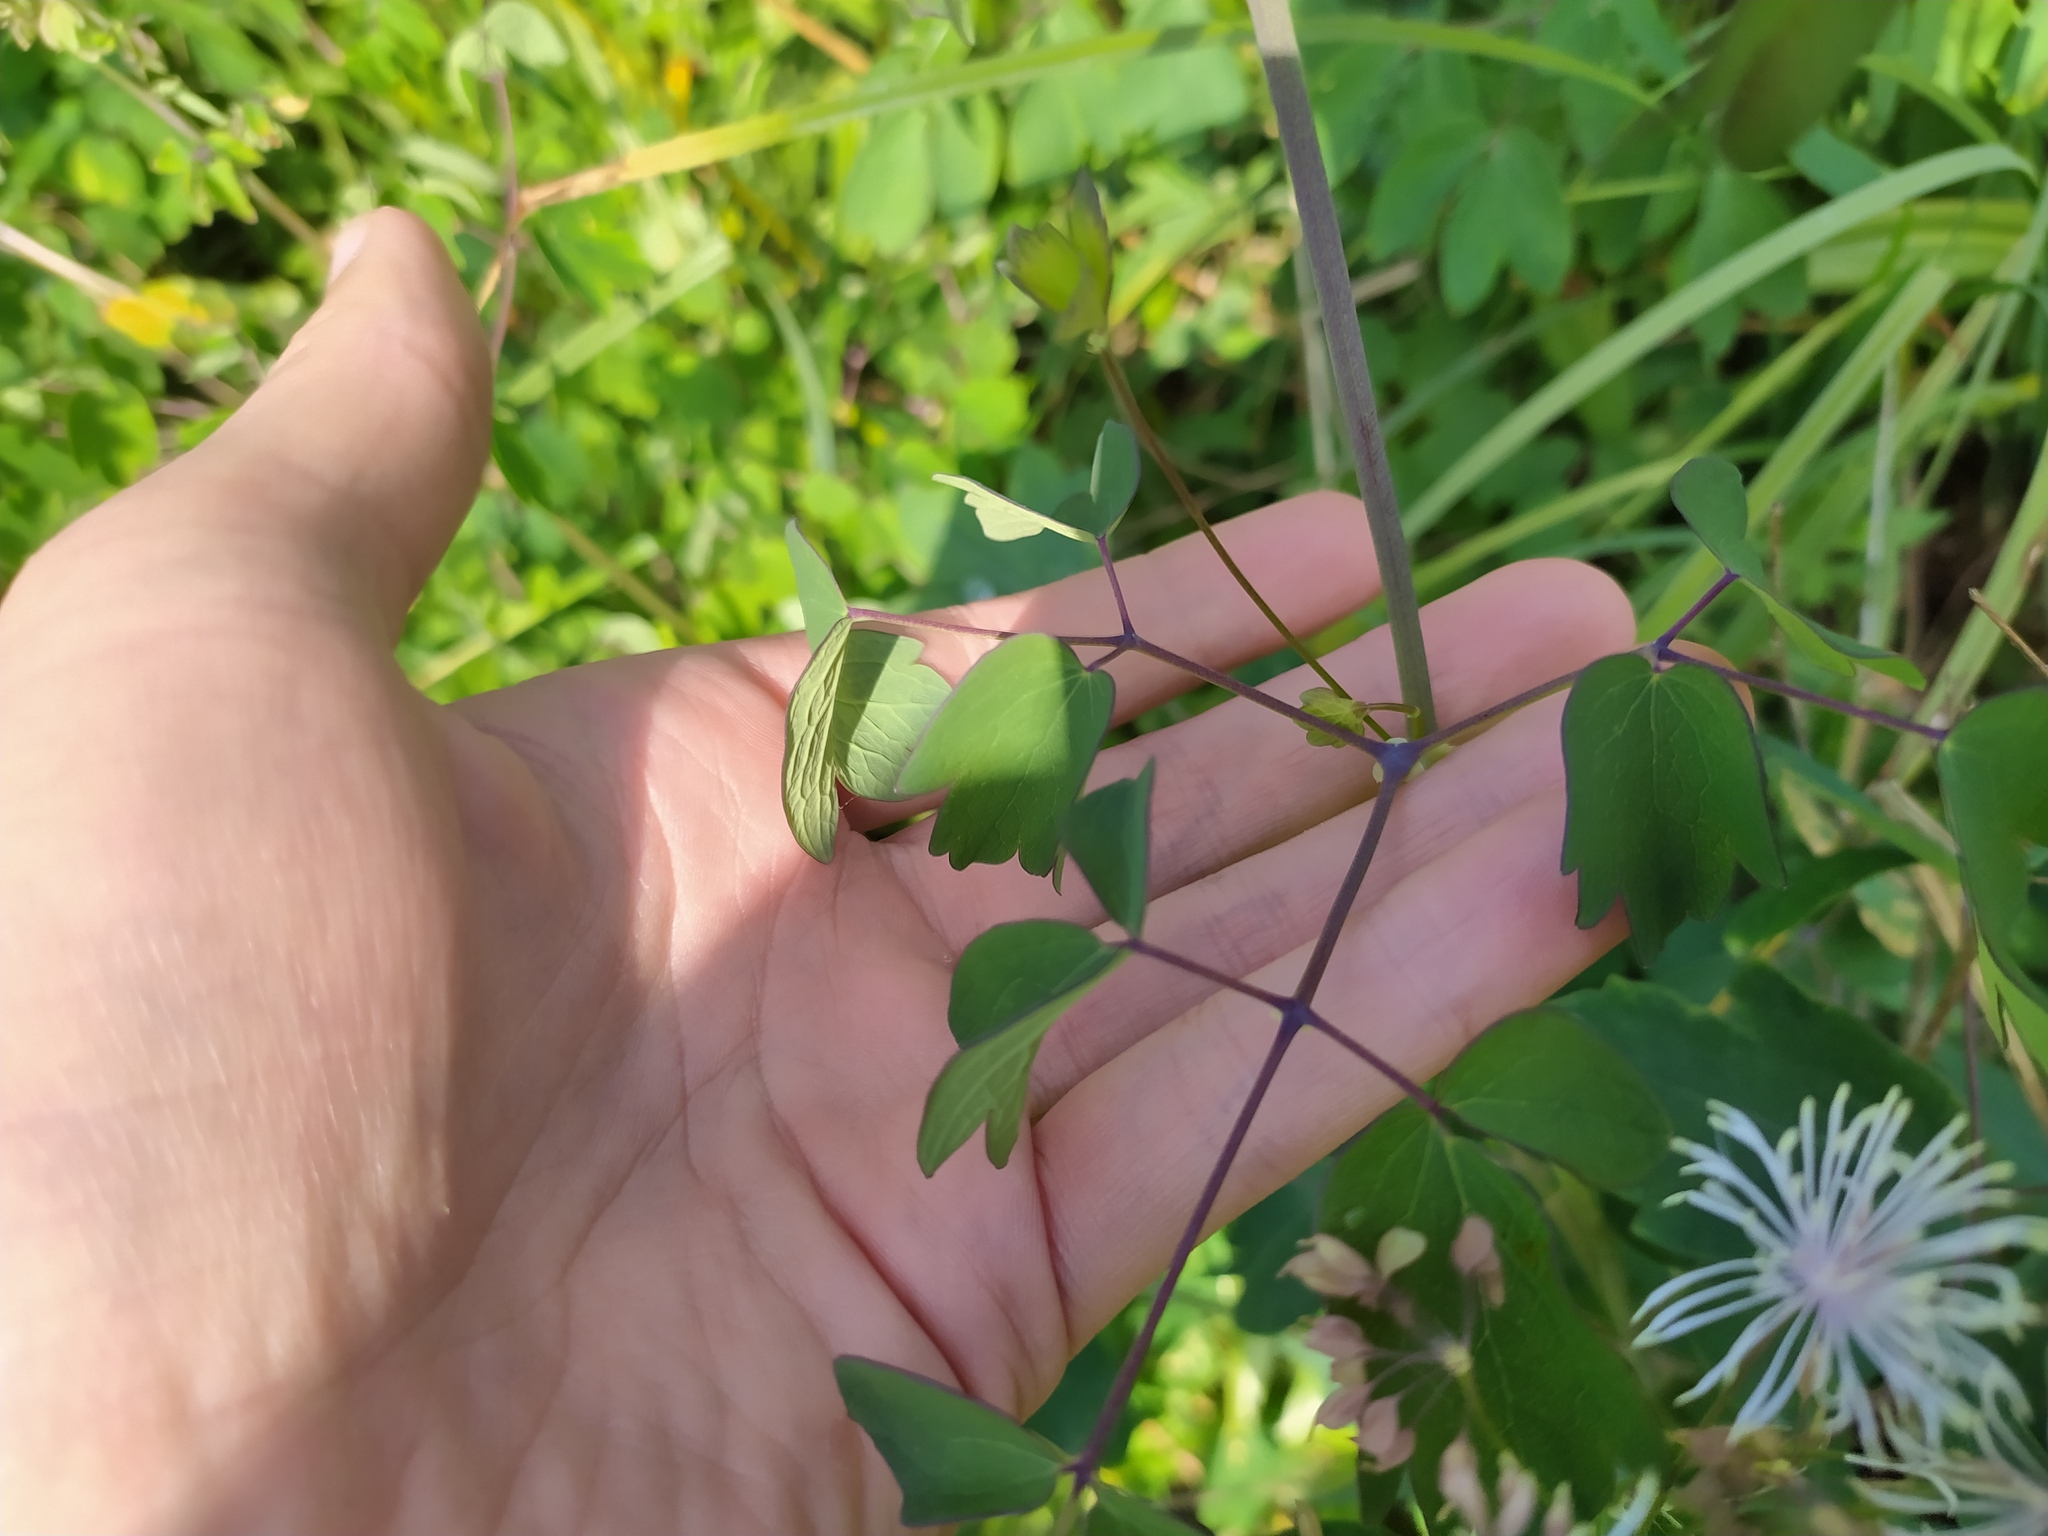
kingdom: Plantae
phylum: Tracheophyta
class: Magnoliopsida
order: Ranunculales
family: Ranunculaceae
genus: Thalictrum
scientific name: Thalictrum aquilegiifolium
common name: French meadow-rue
